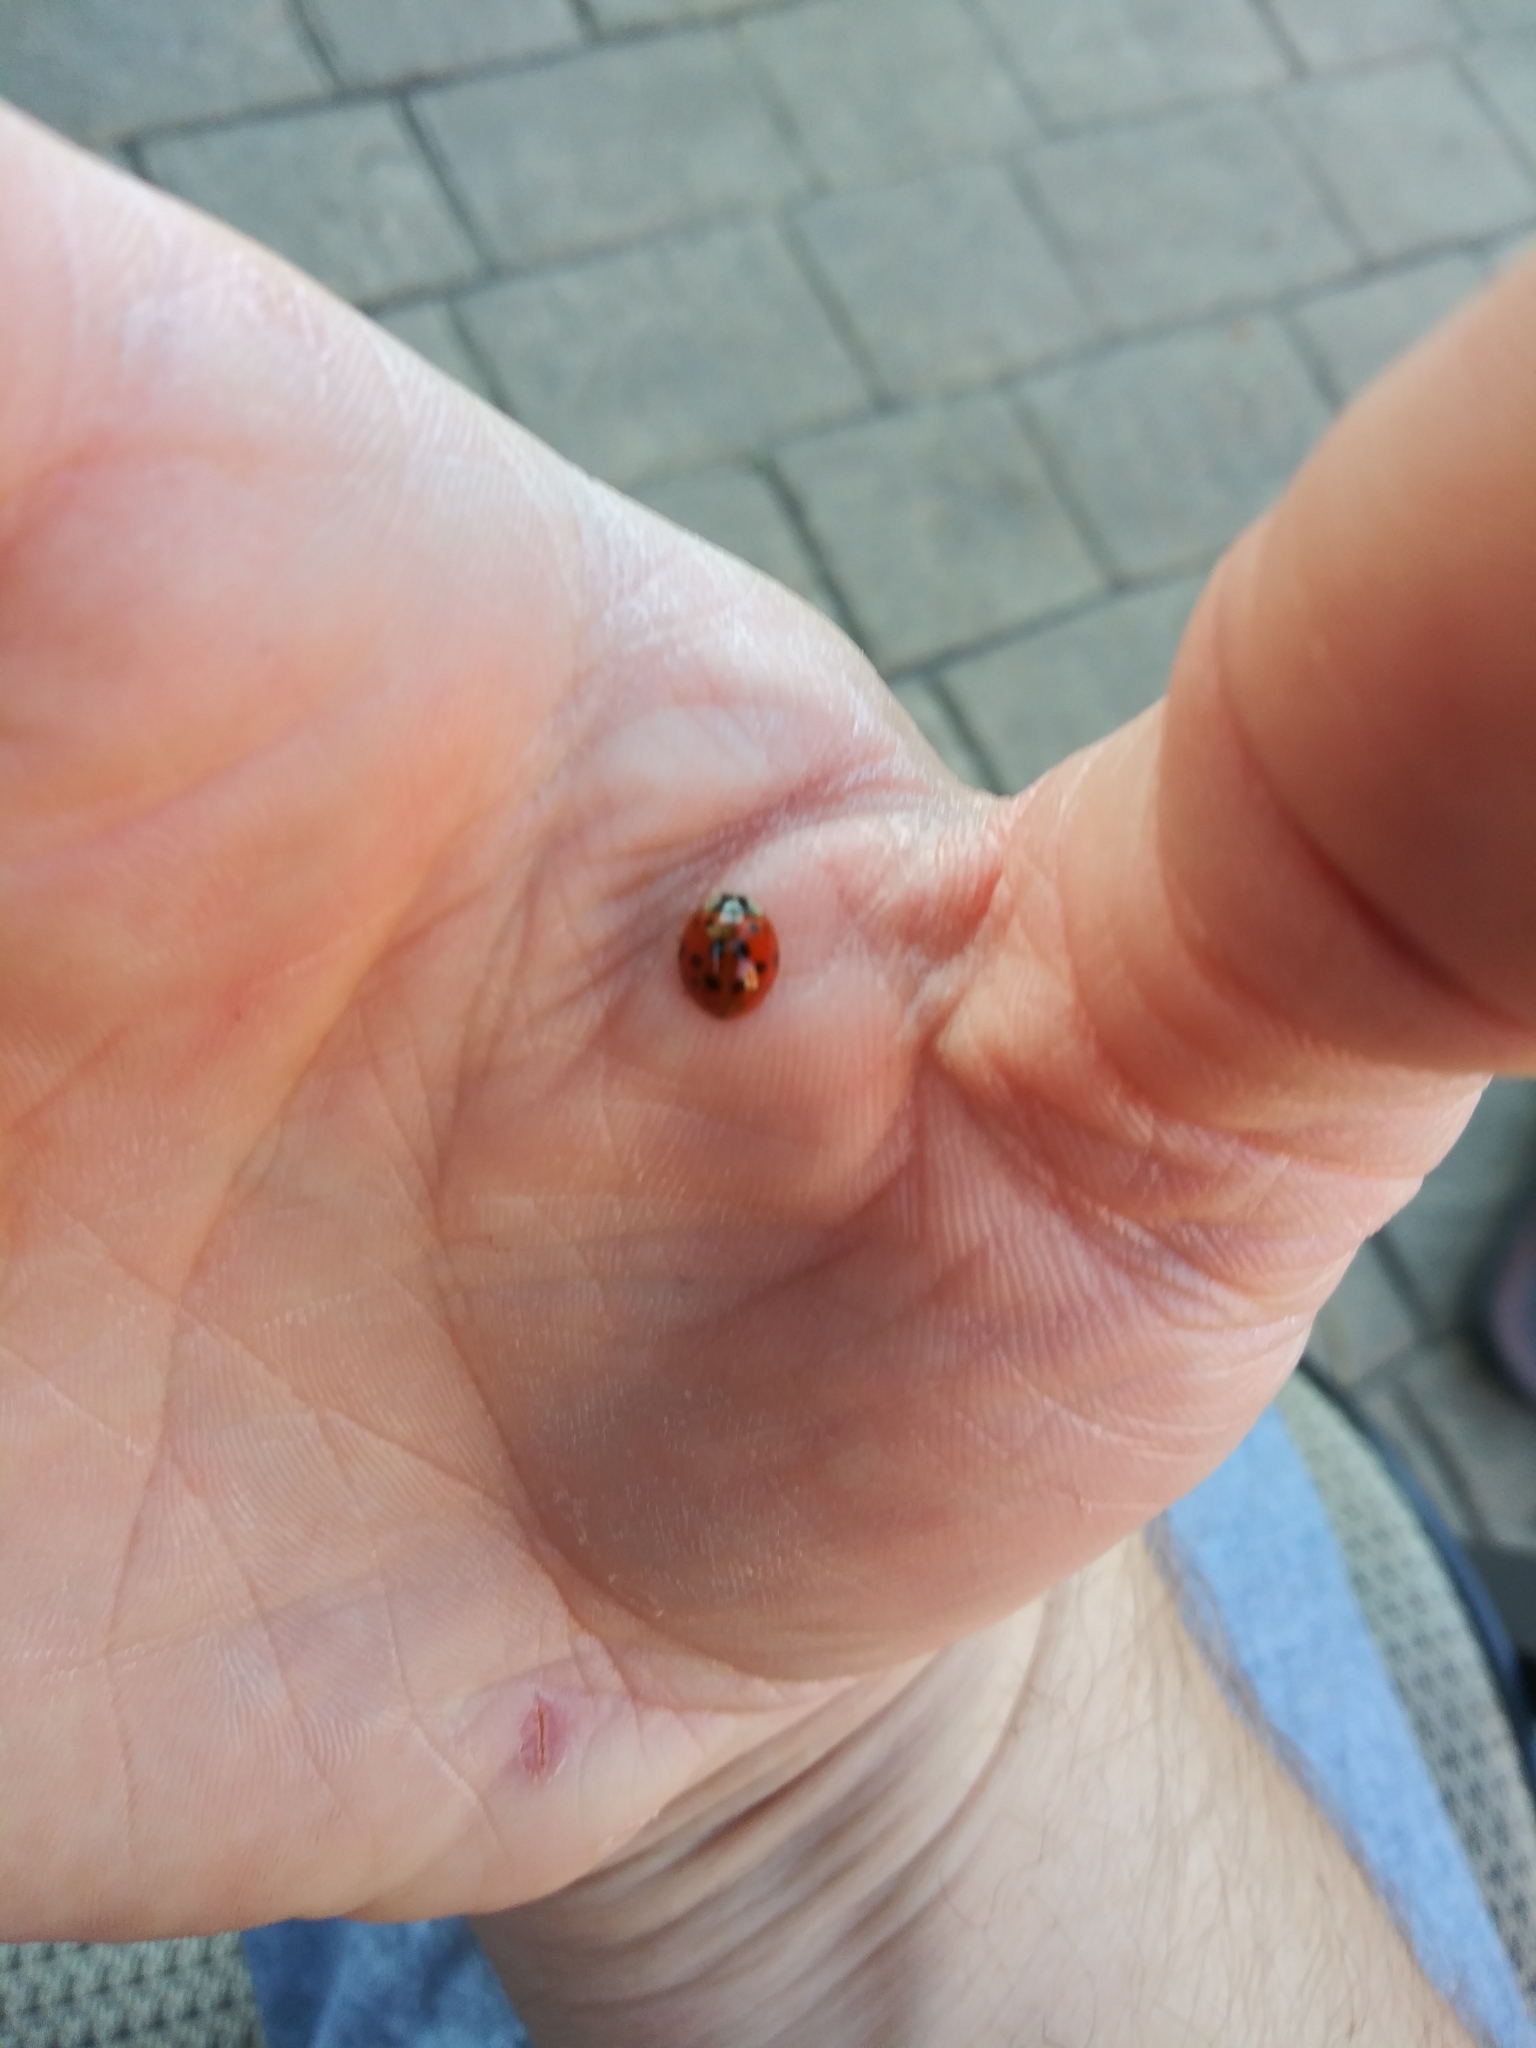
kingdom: Animalia
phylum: Arthropoda
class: Insecta
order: Coleoptera
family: Coccinellidae
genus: Harmonia
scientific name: Harmonia axyridis
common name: Harlequin ladybird
